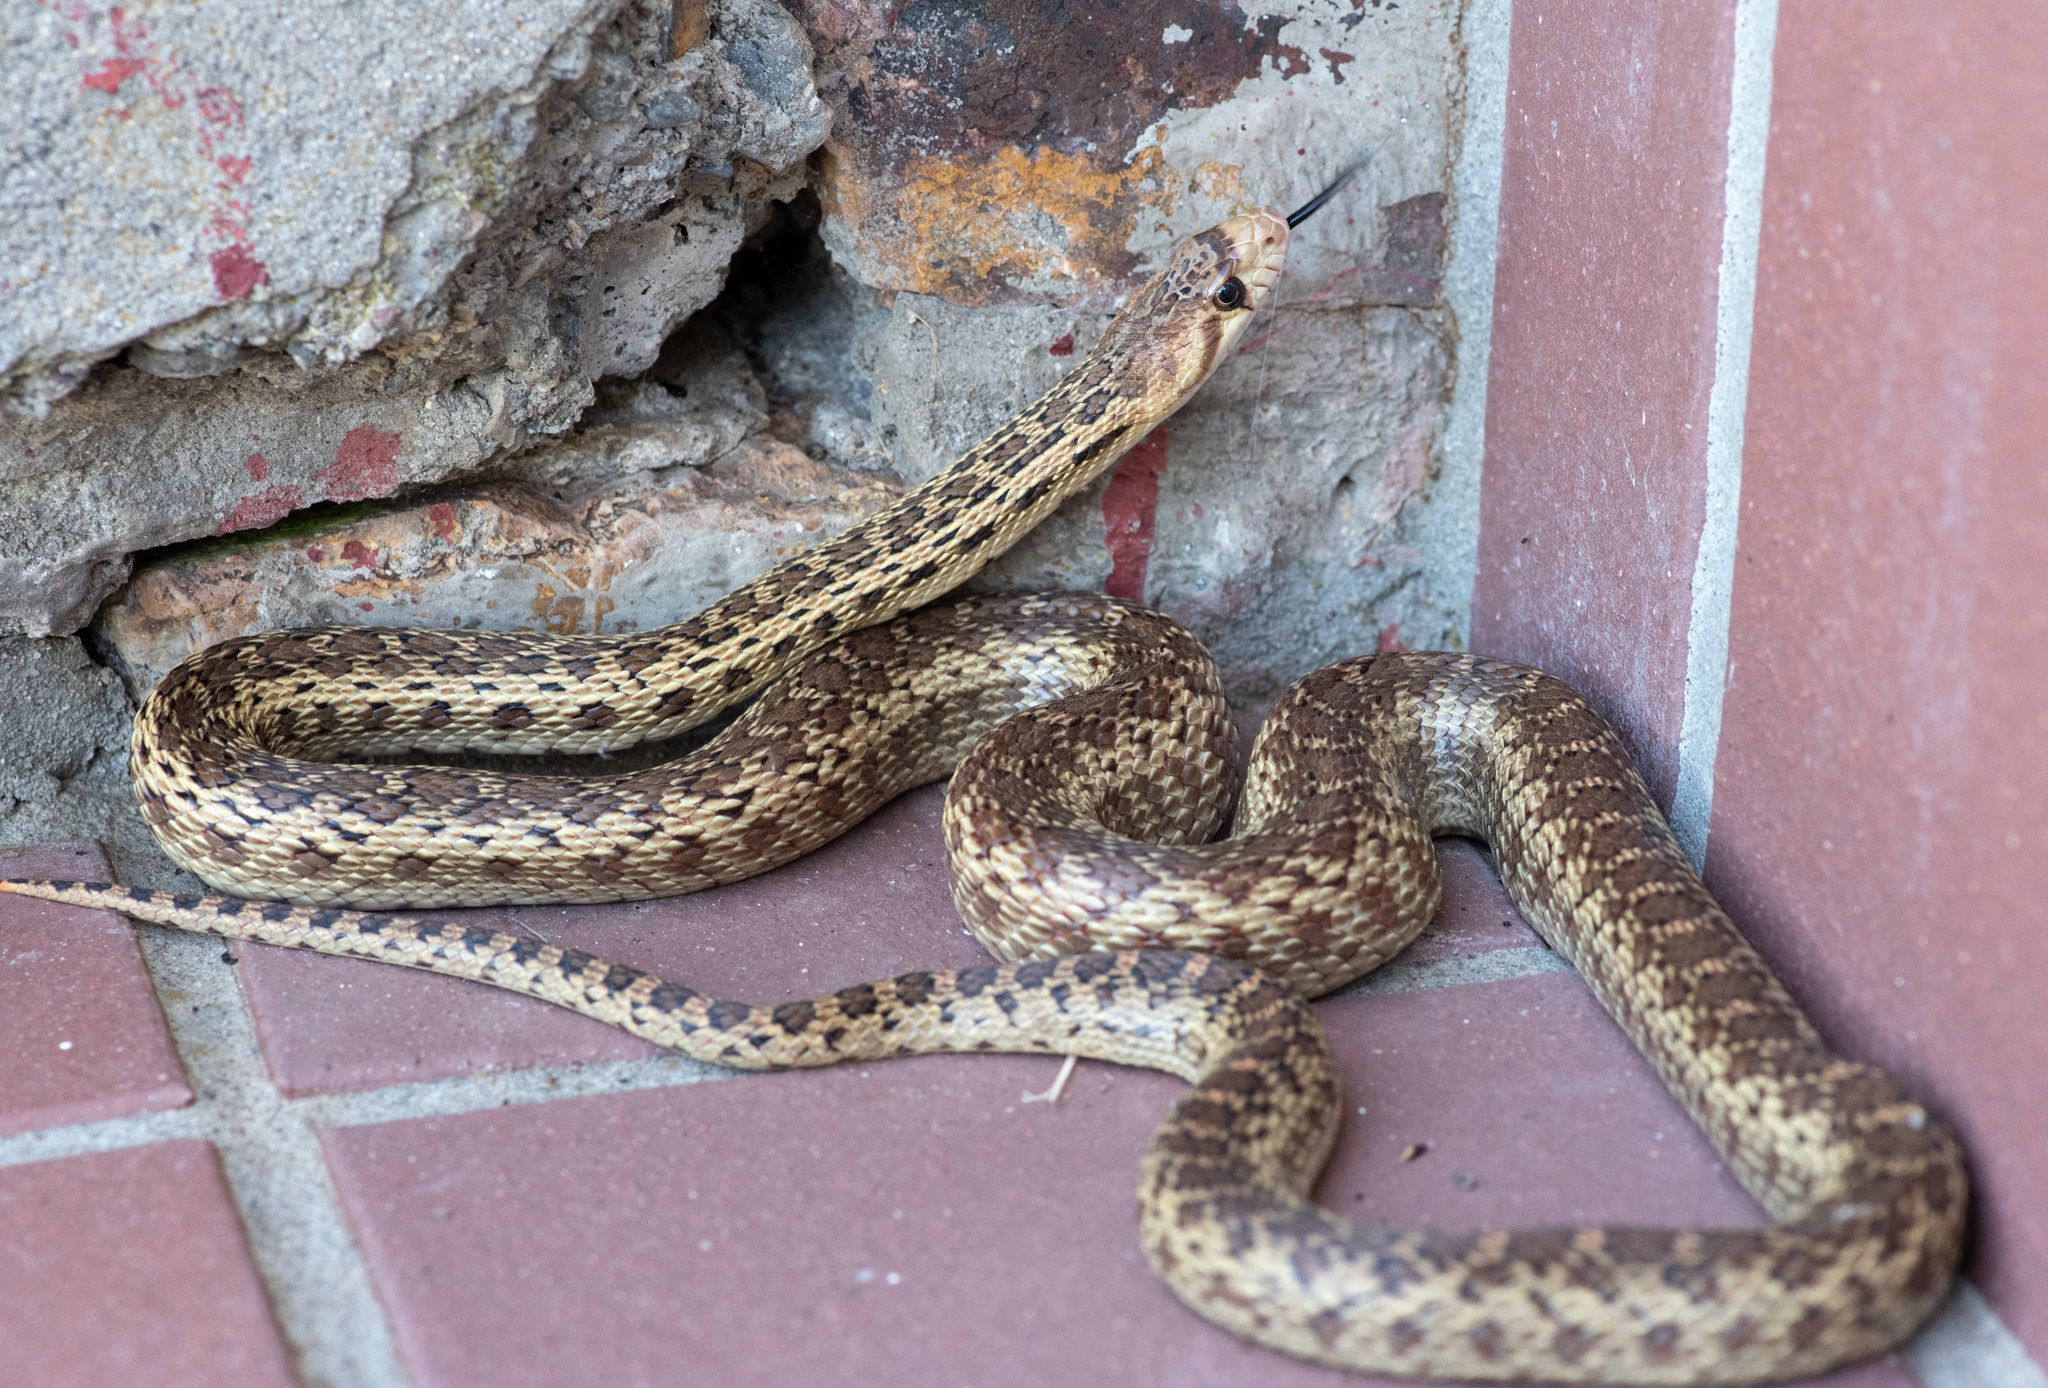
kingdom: Animalia
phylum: Chordata
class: Squamata
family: Colubridae
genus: Pituophis
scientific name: Pituophis catenifer
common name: Gopher snake
